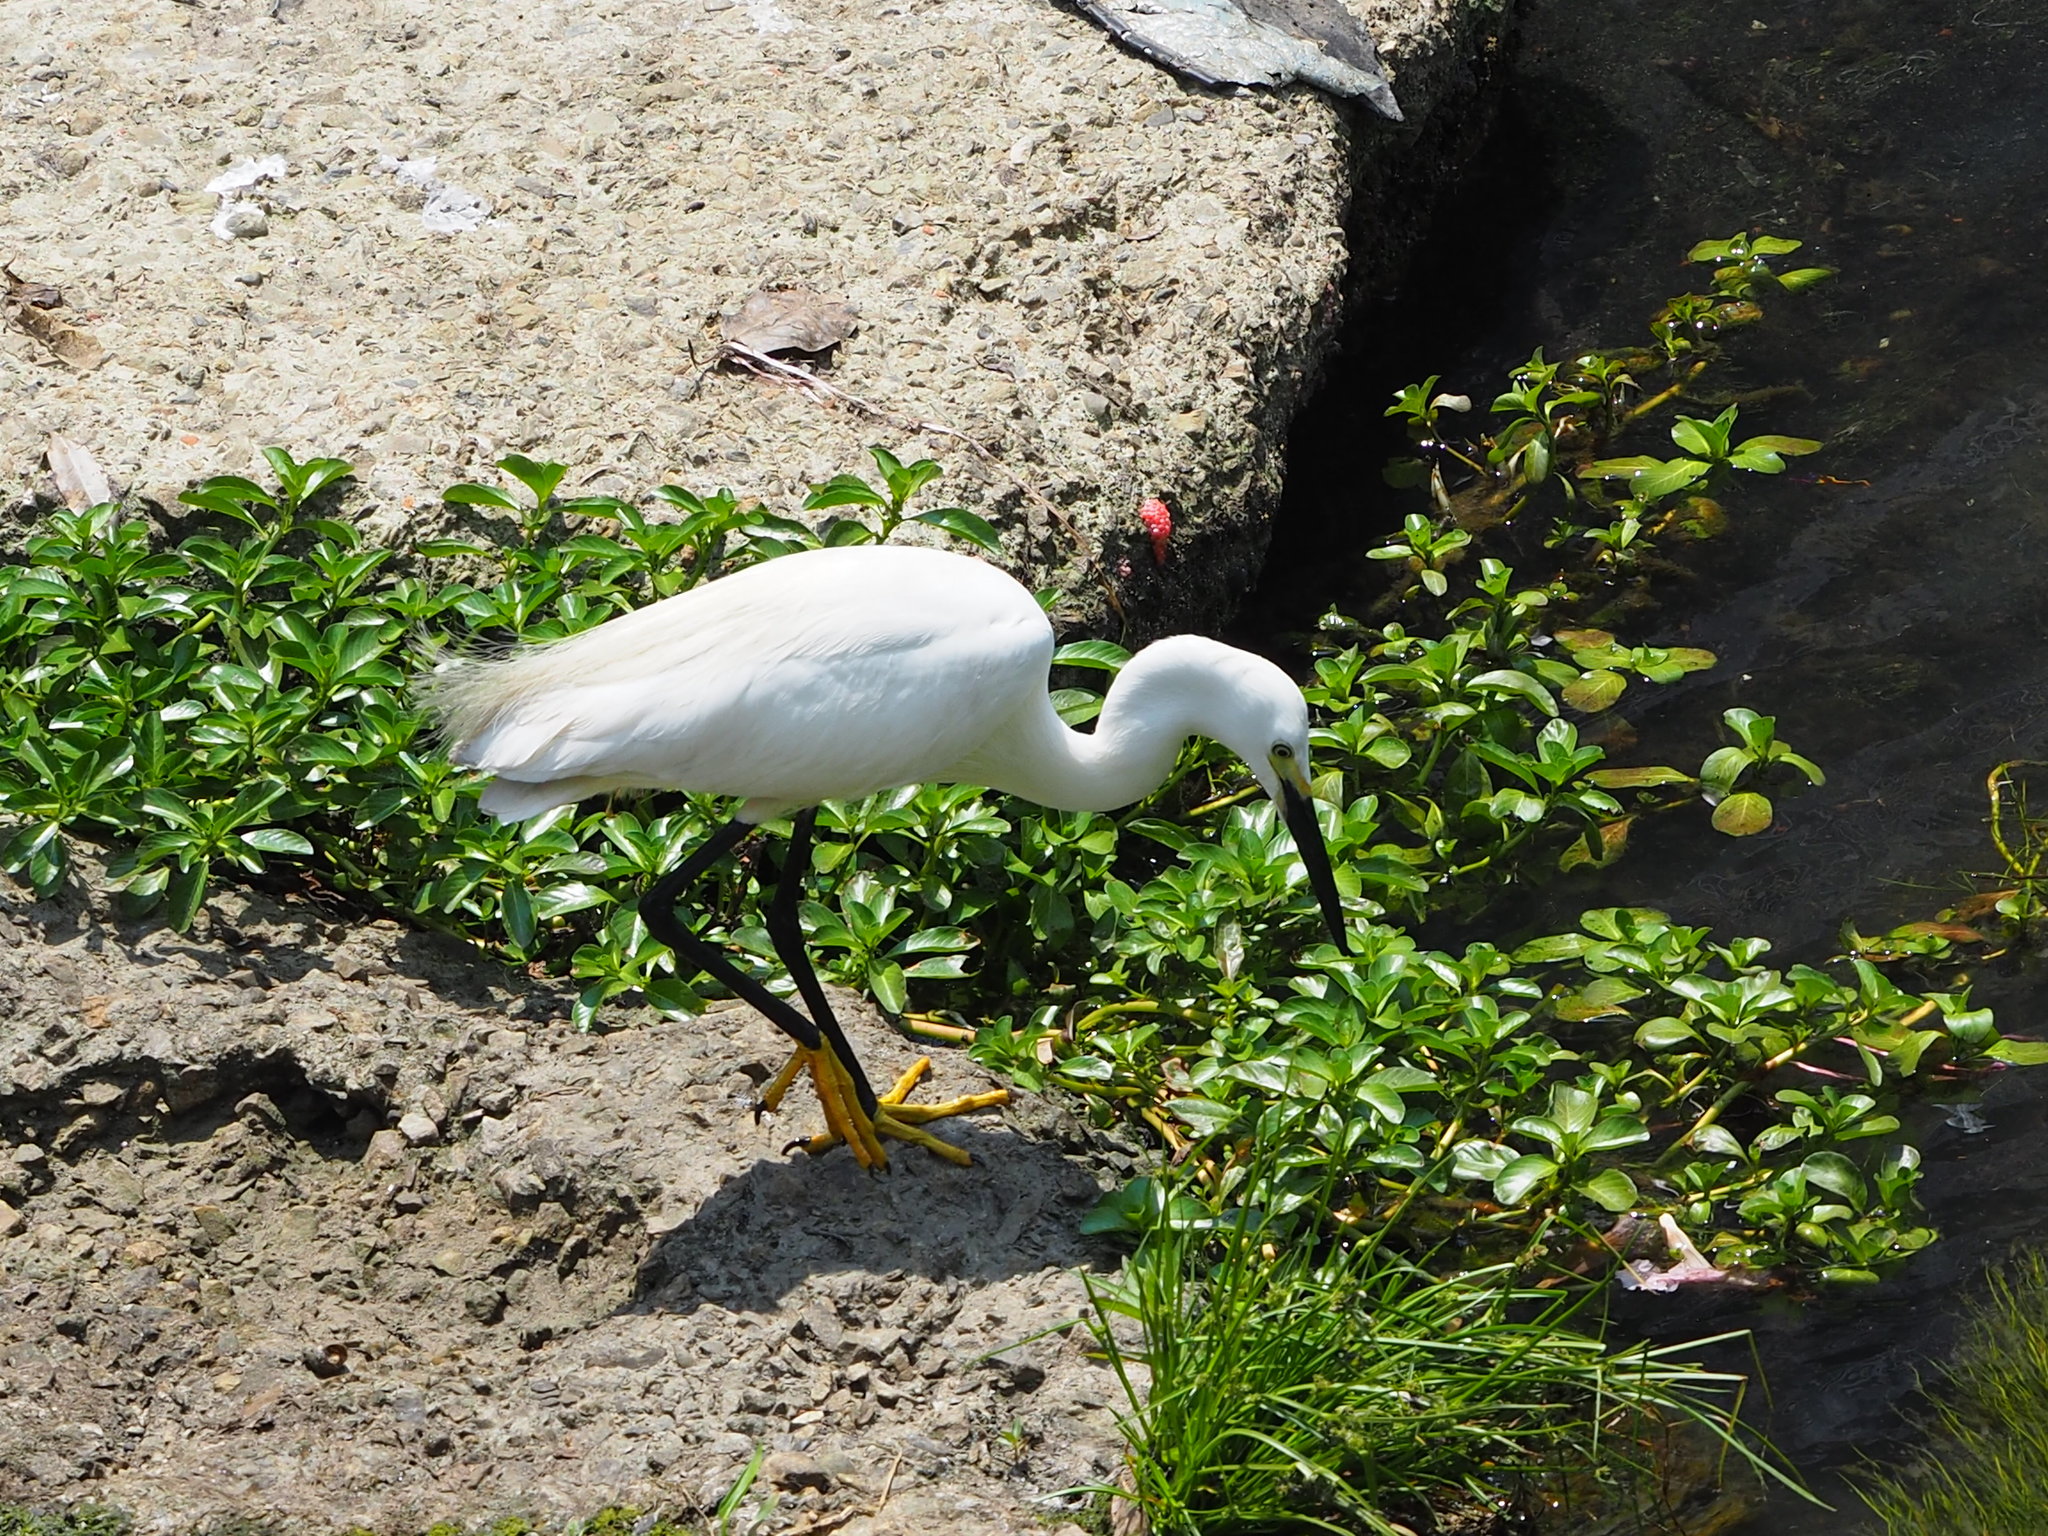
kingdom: Animalia
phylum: Chordata
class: Aves
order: Pelecaniformes
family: Ardeidae
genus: Egretta
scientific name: Egretta garzetta
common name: Little egret
